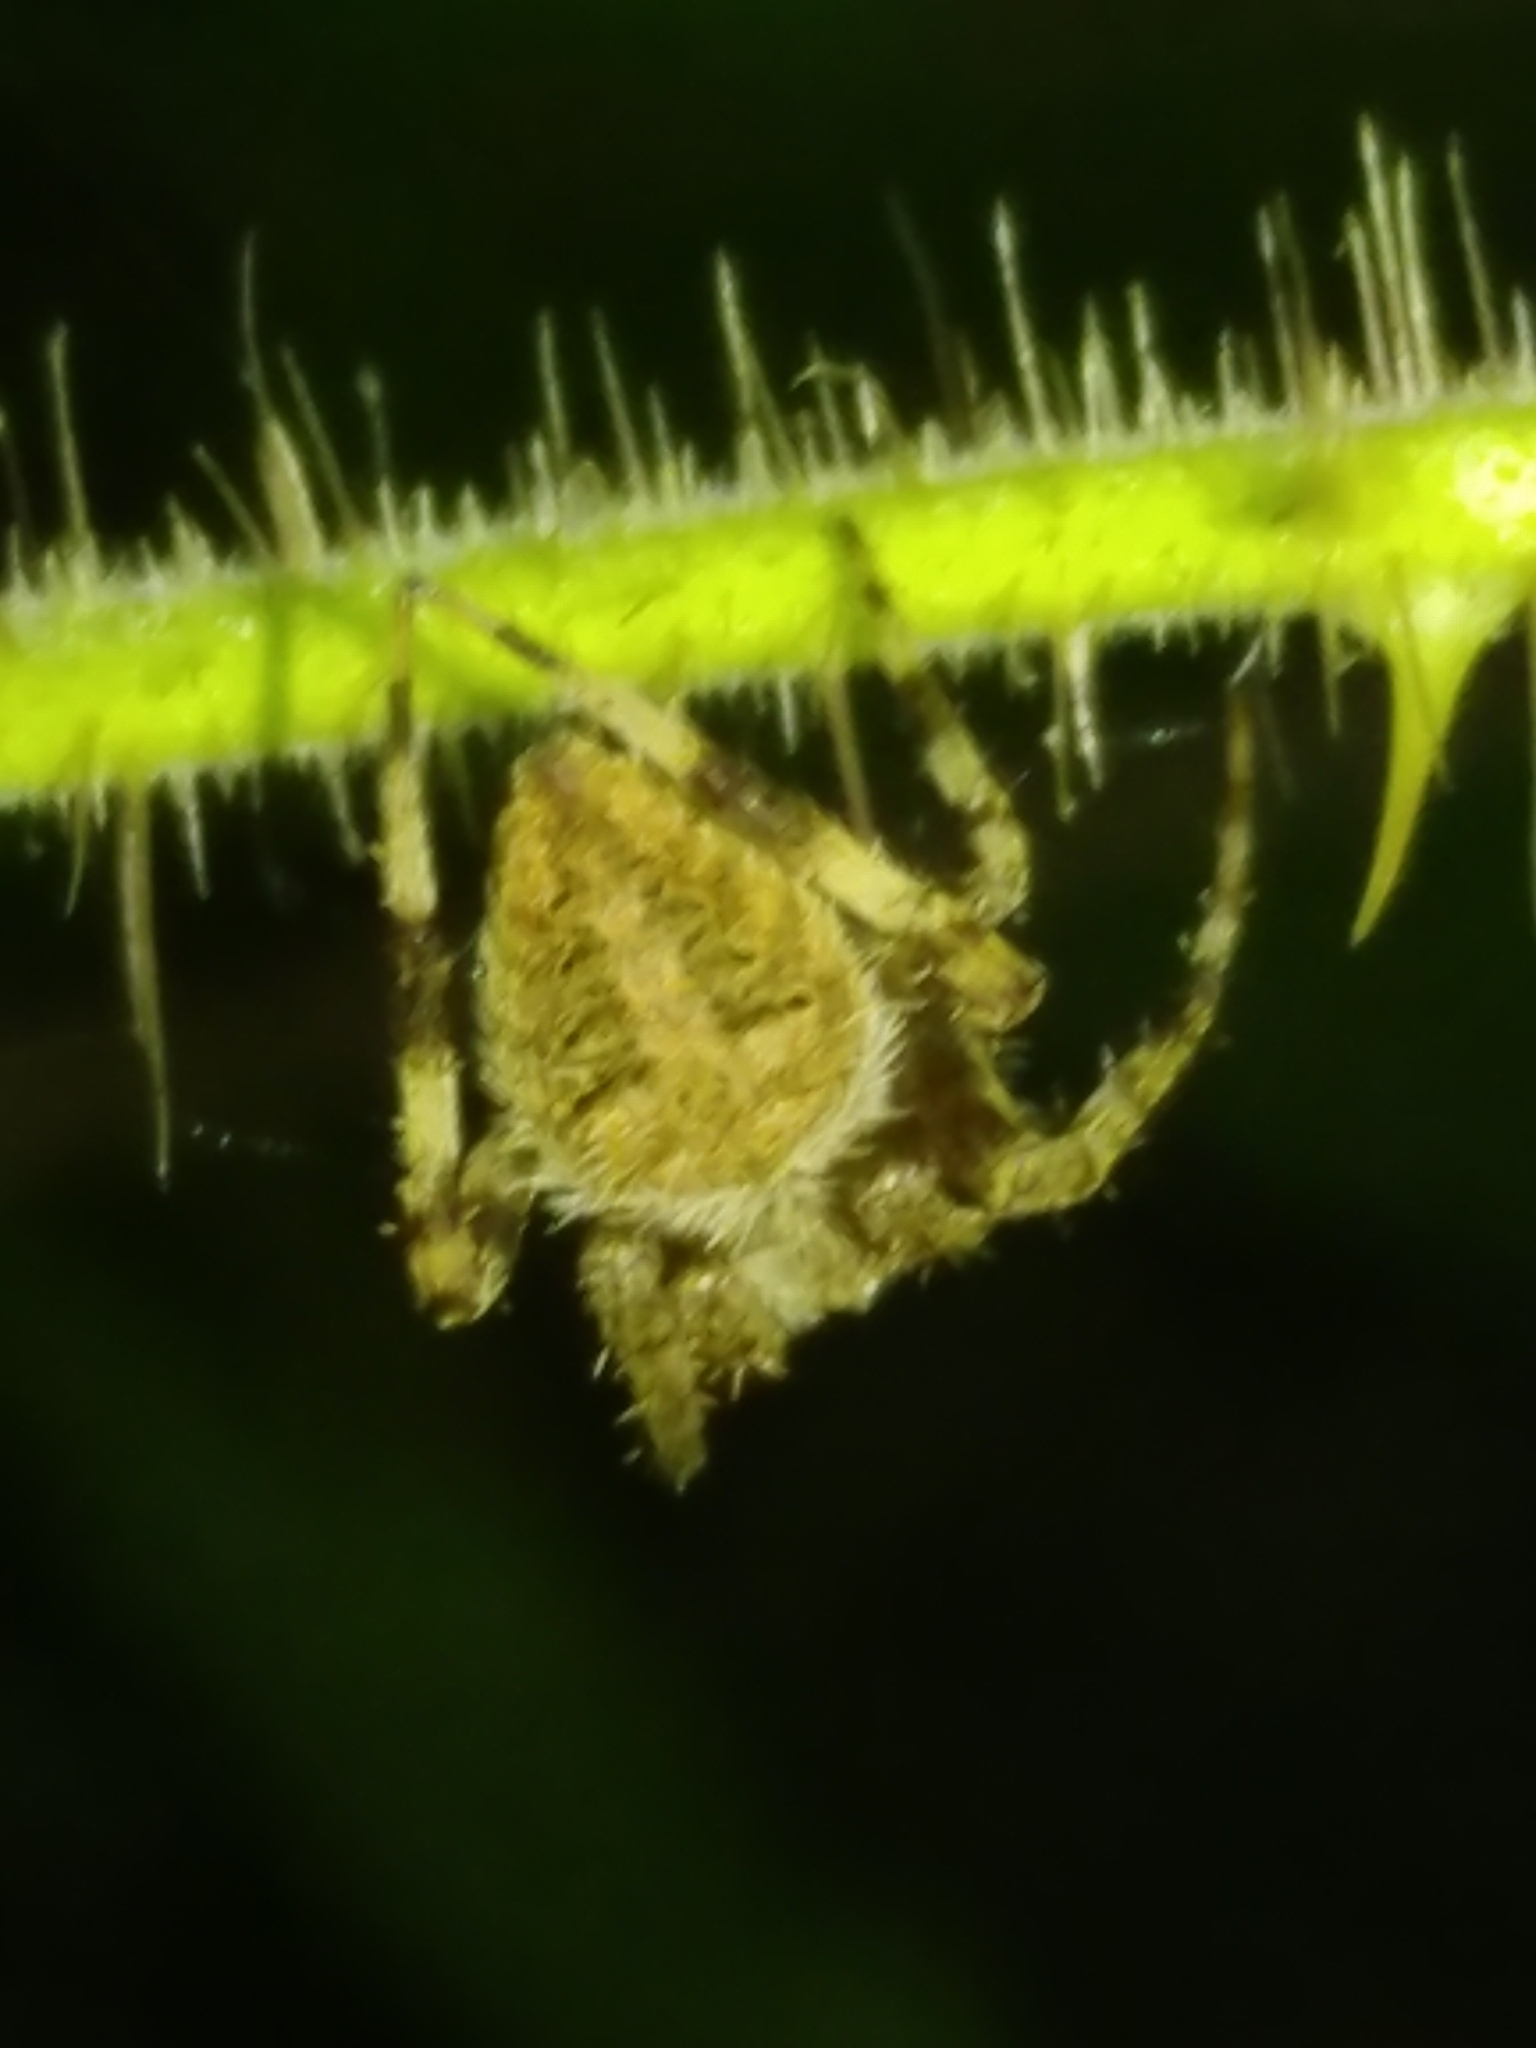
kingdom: Animalia
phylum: Arthropoda
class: Arachnida
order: Araneae
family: Araneidae
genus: Neoscona
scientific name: Neoscona crucifera
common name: Spotted orbweaver
